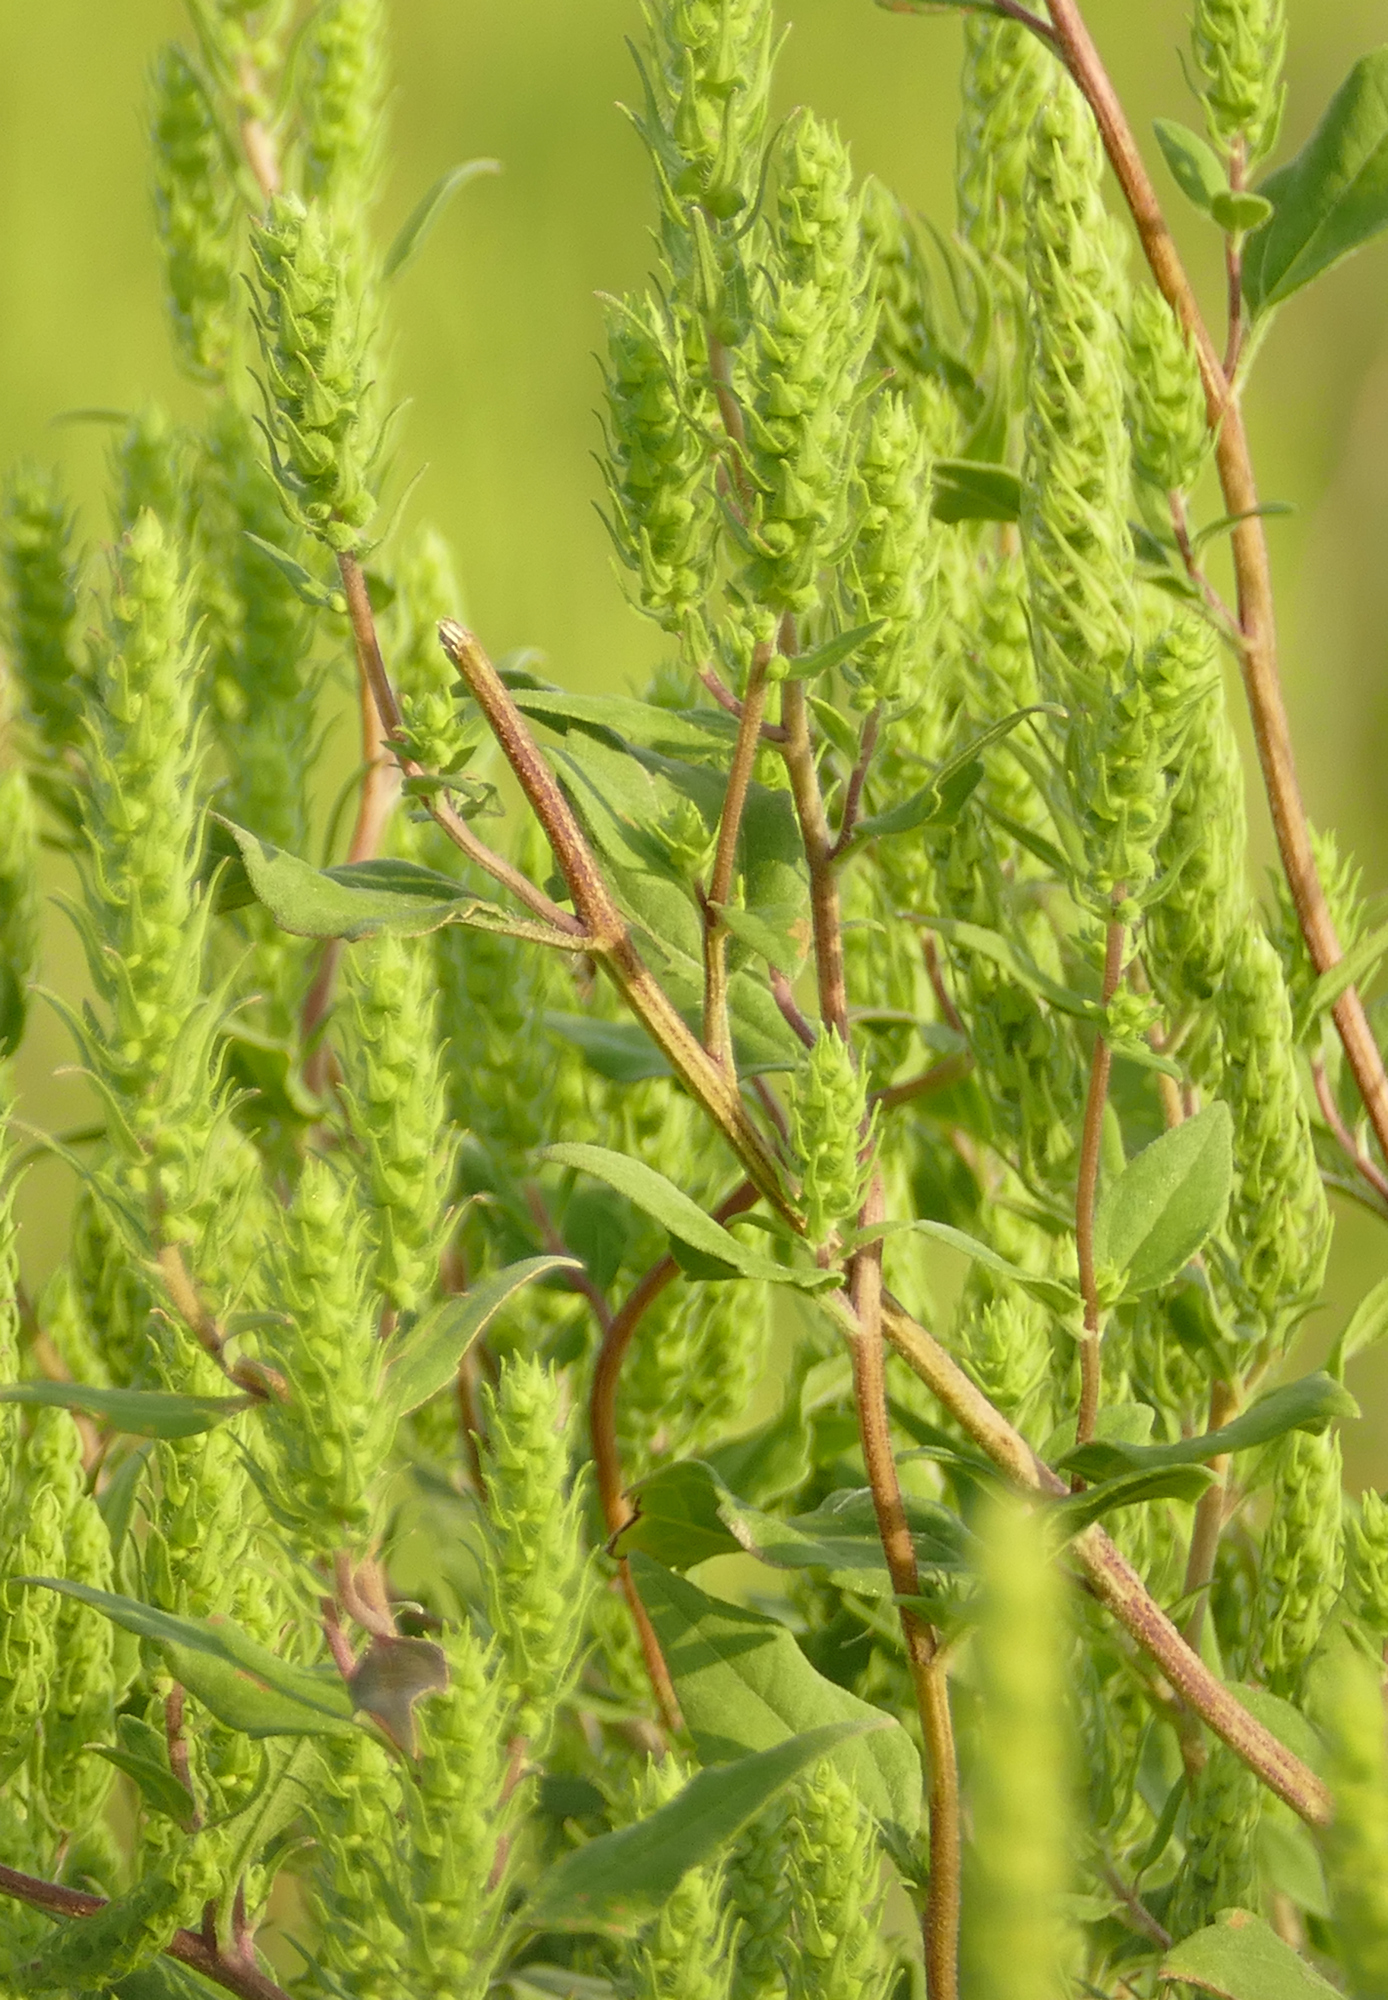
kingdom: Plantae
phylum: Tracheophyta
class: Magnoliopsida
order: Asterales
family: Asteraceae
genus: Iva
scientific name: Iva annua
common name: Marsh-elder
